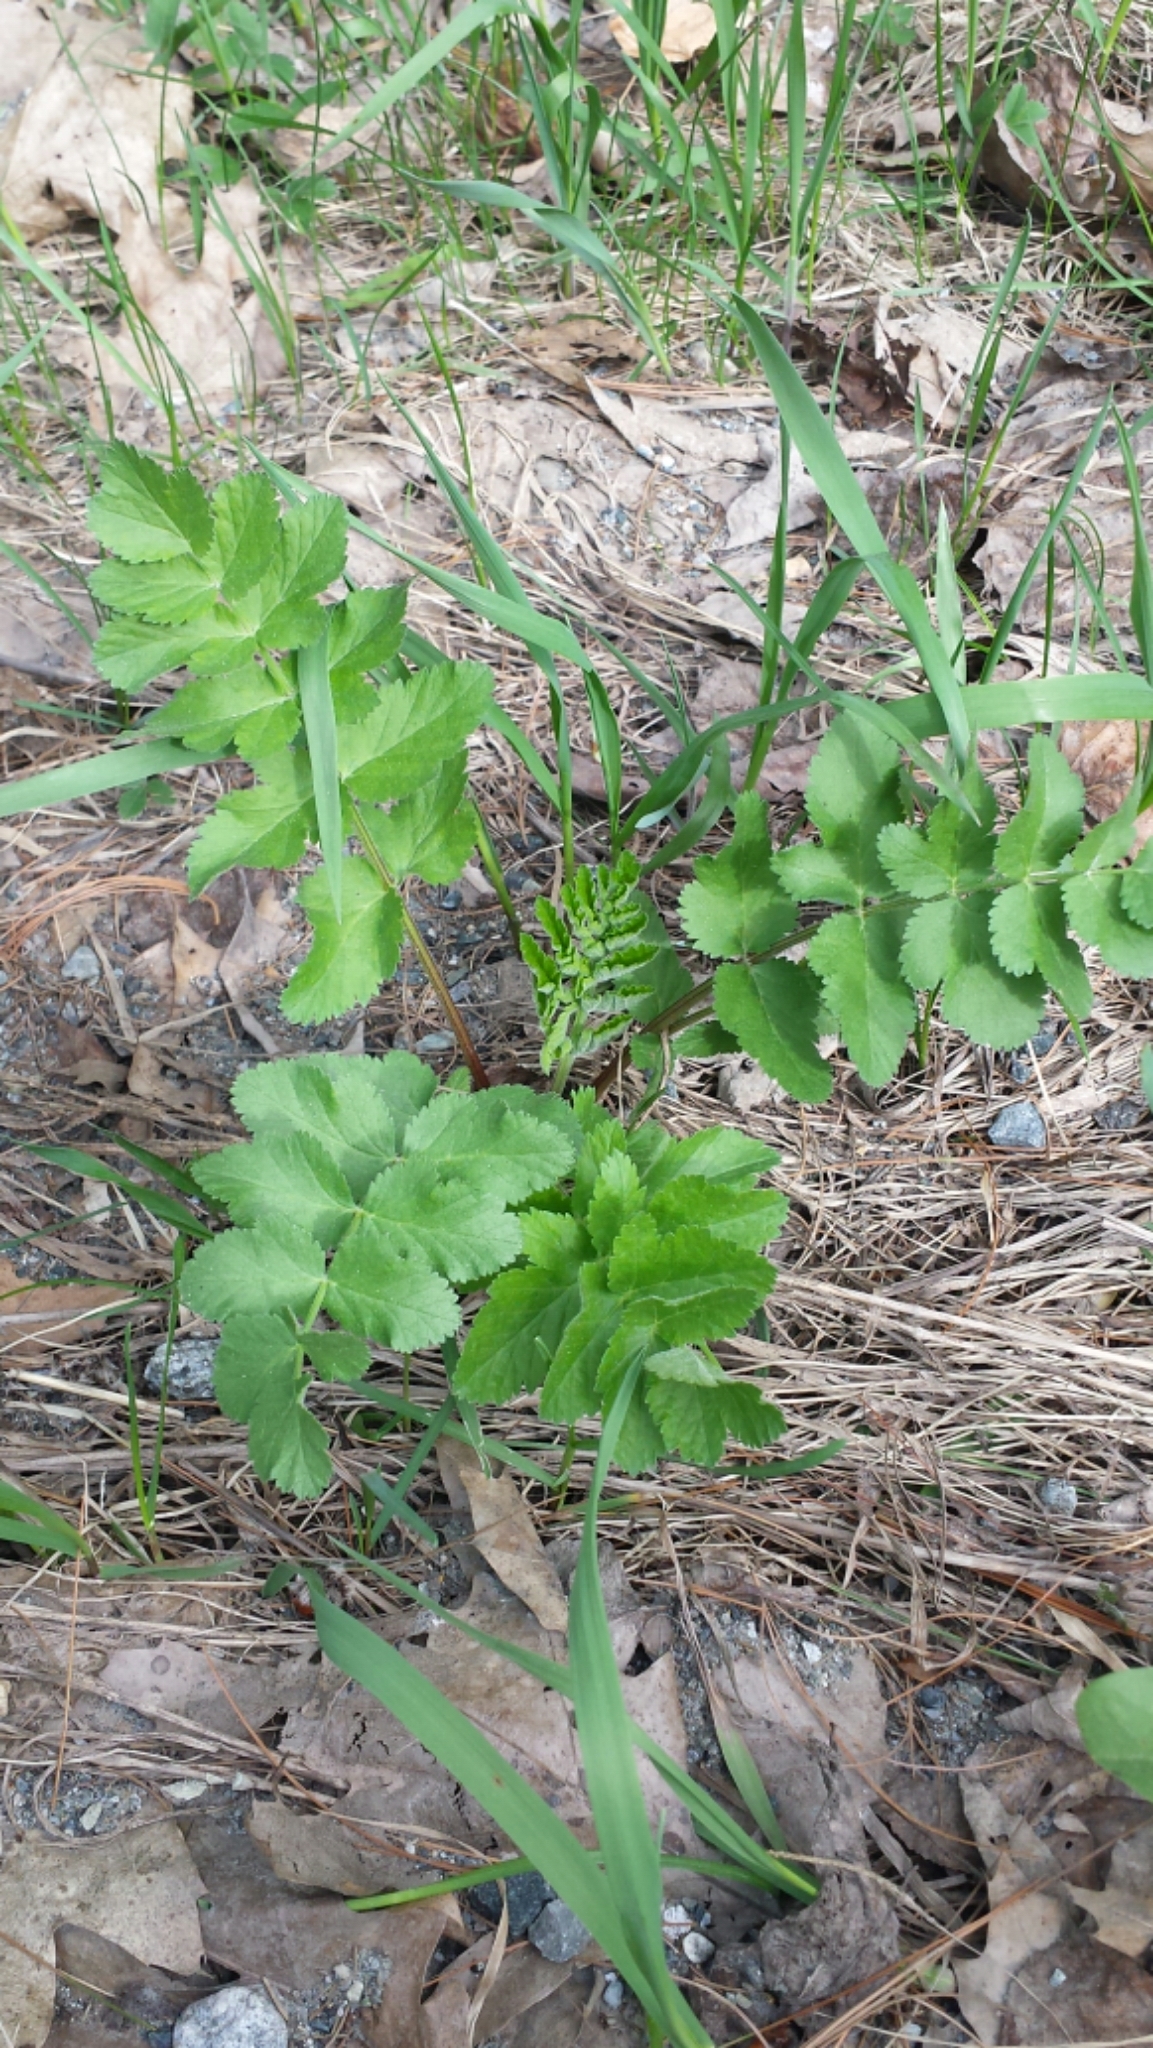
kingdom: Plantae
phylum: Tracheophyta
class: Magnoliopsida
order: Apiales
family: Apiaceae
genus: Pastinaca
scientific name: Pastinaca sativa
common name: Wild parsnip
